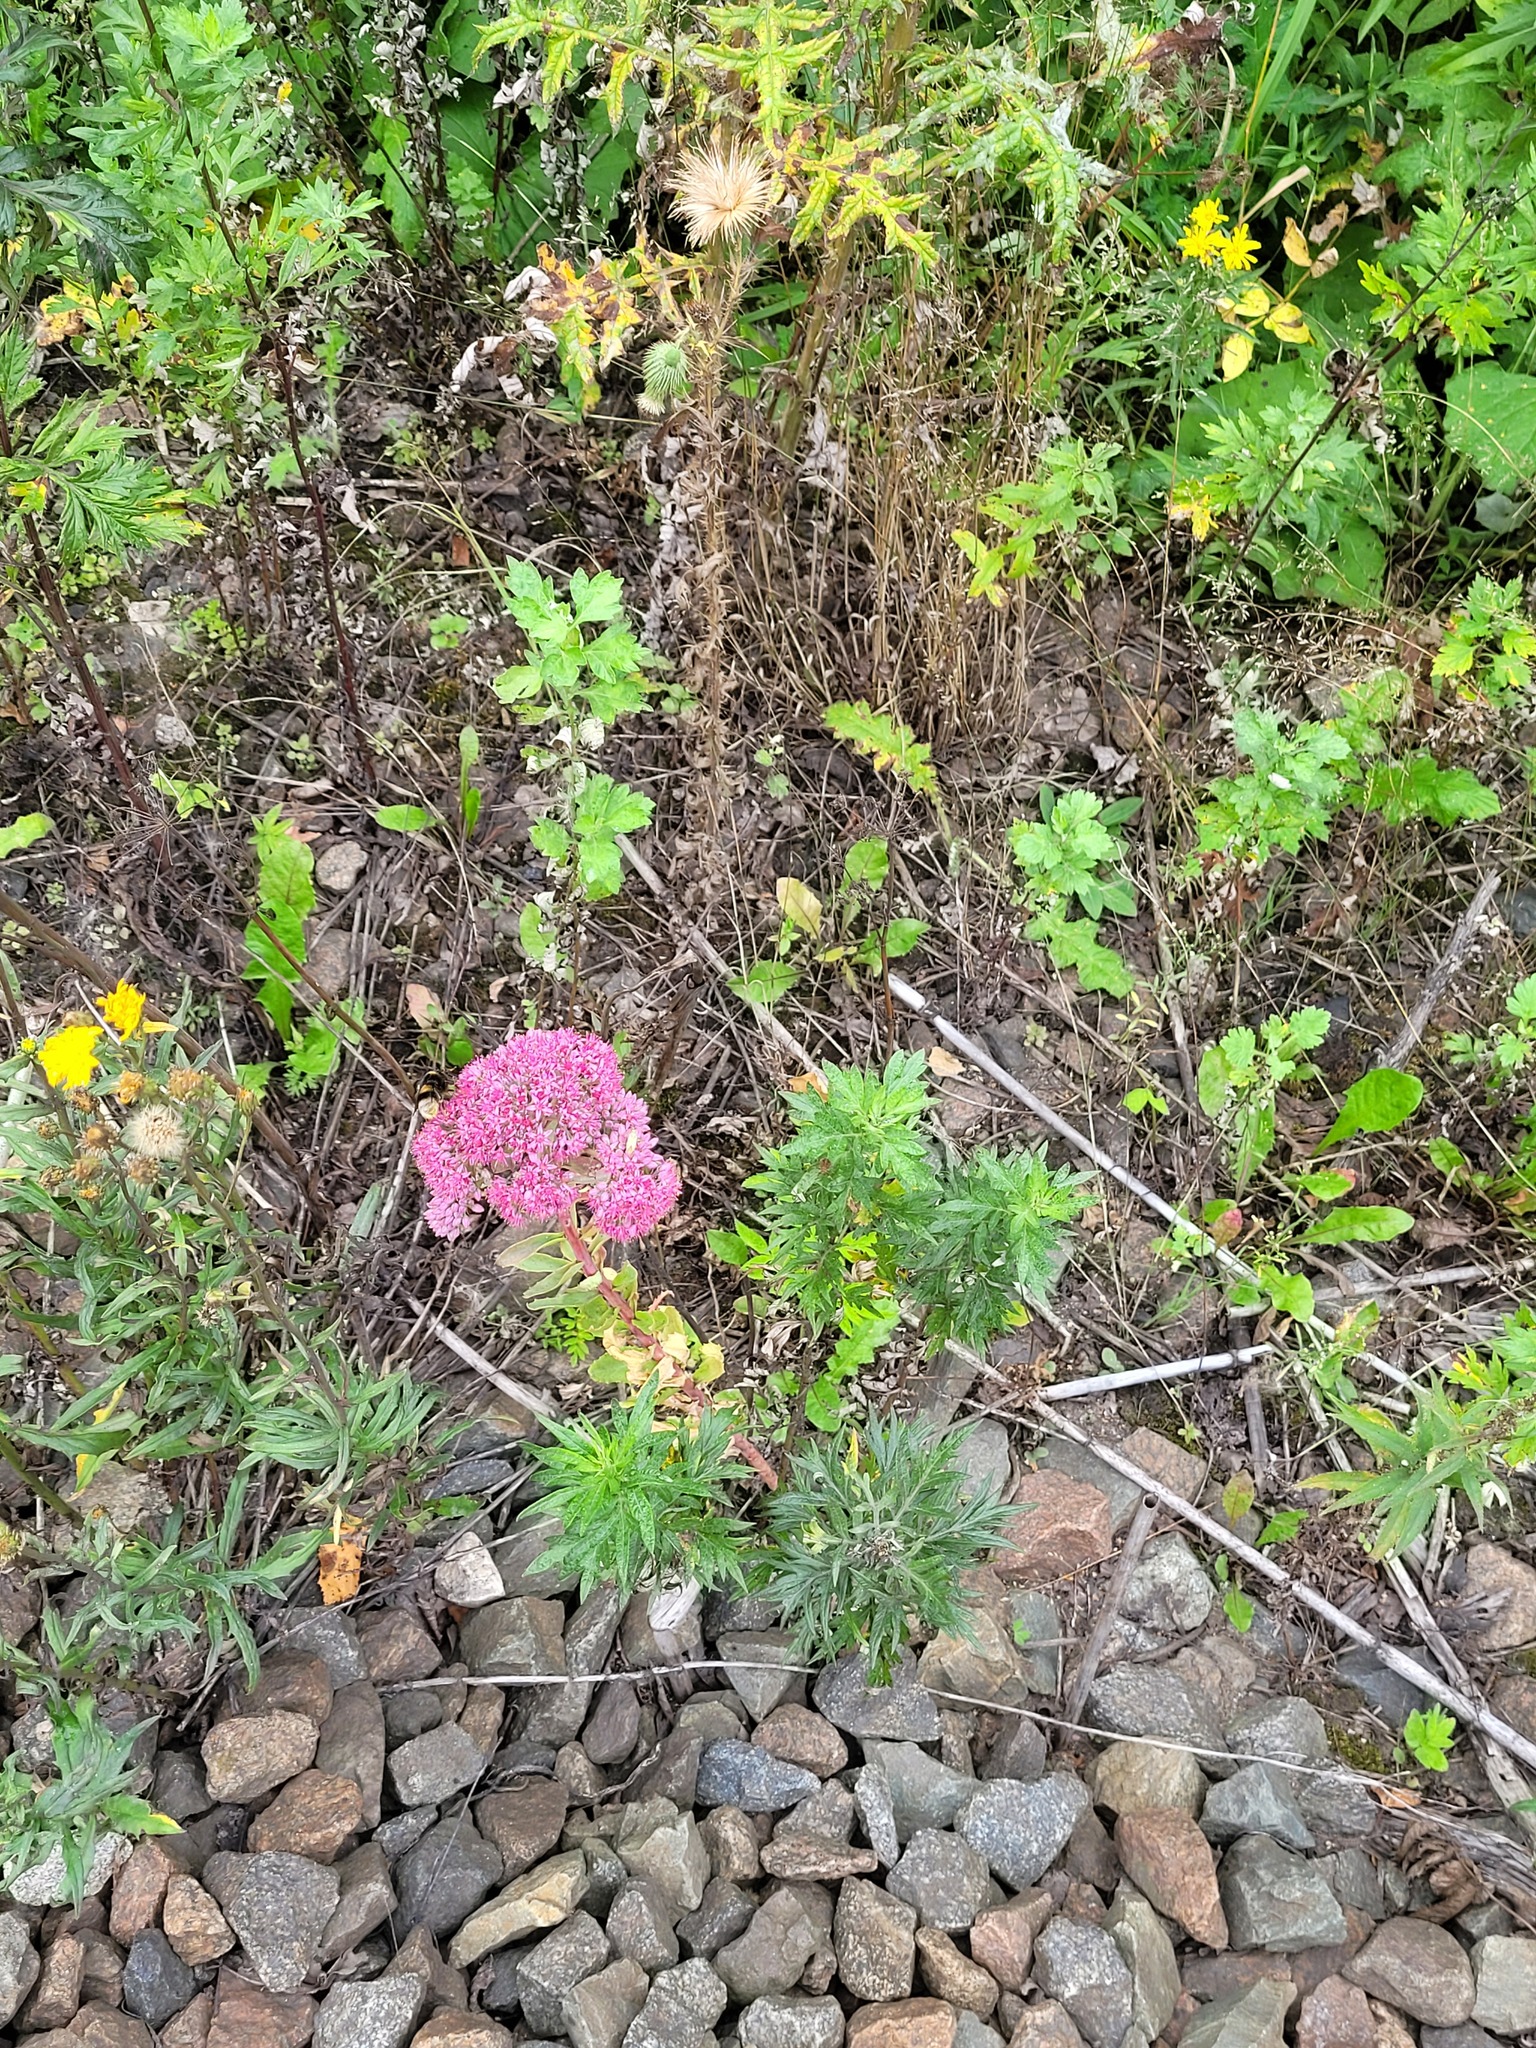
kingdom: Plantae
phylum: Tracheophyta
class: Magnoliopsida
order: Saxifragales
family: Crassulaceae
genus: Hylotelephium
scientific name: Hylotelephium telephium
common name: Live-forever
